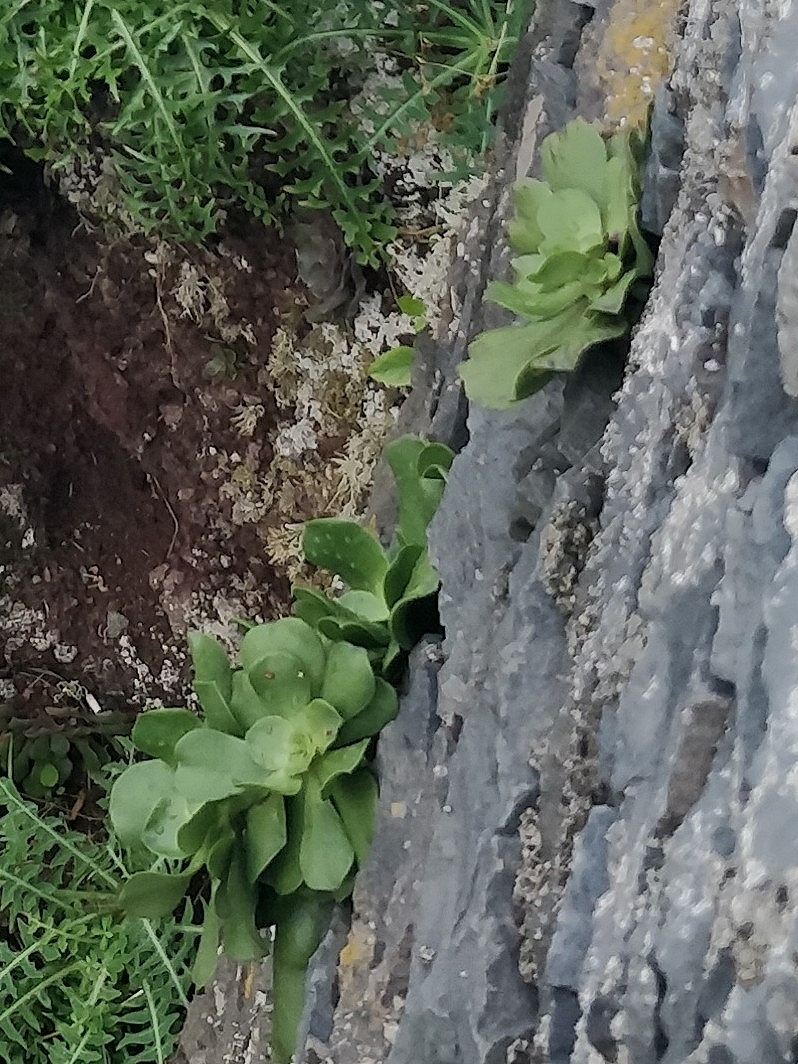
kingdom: Plantae
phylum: Tracheophyta
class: Magnoliopsida
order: Saxifragales
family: Crassulaceae
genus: Aeonium
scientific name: Aeonium glutinosum
